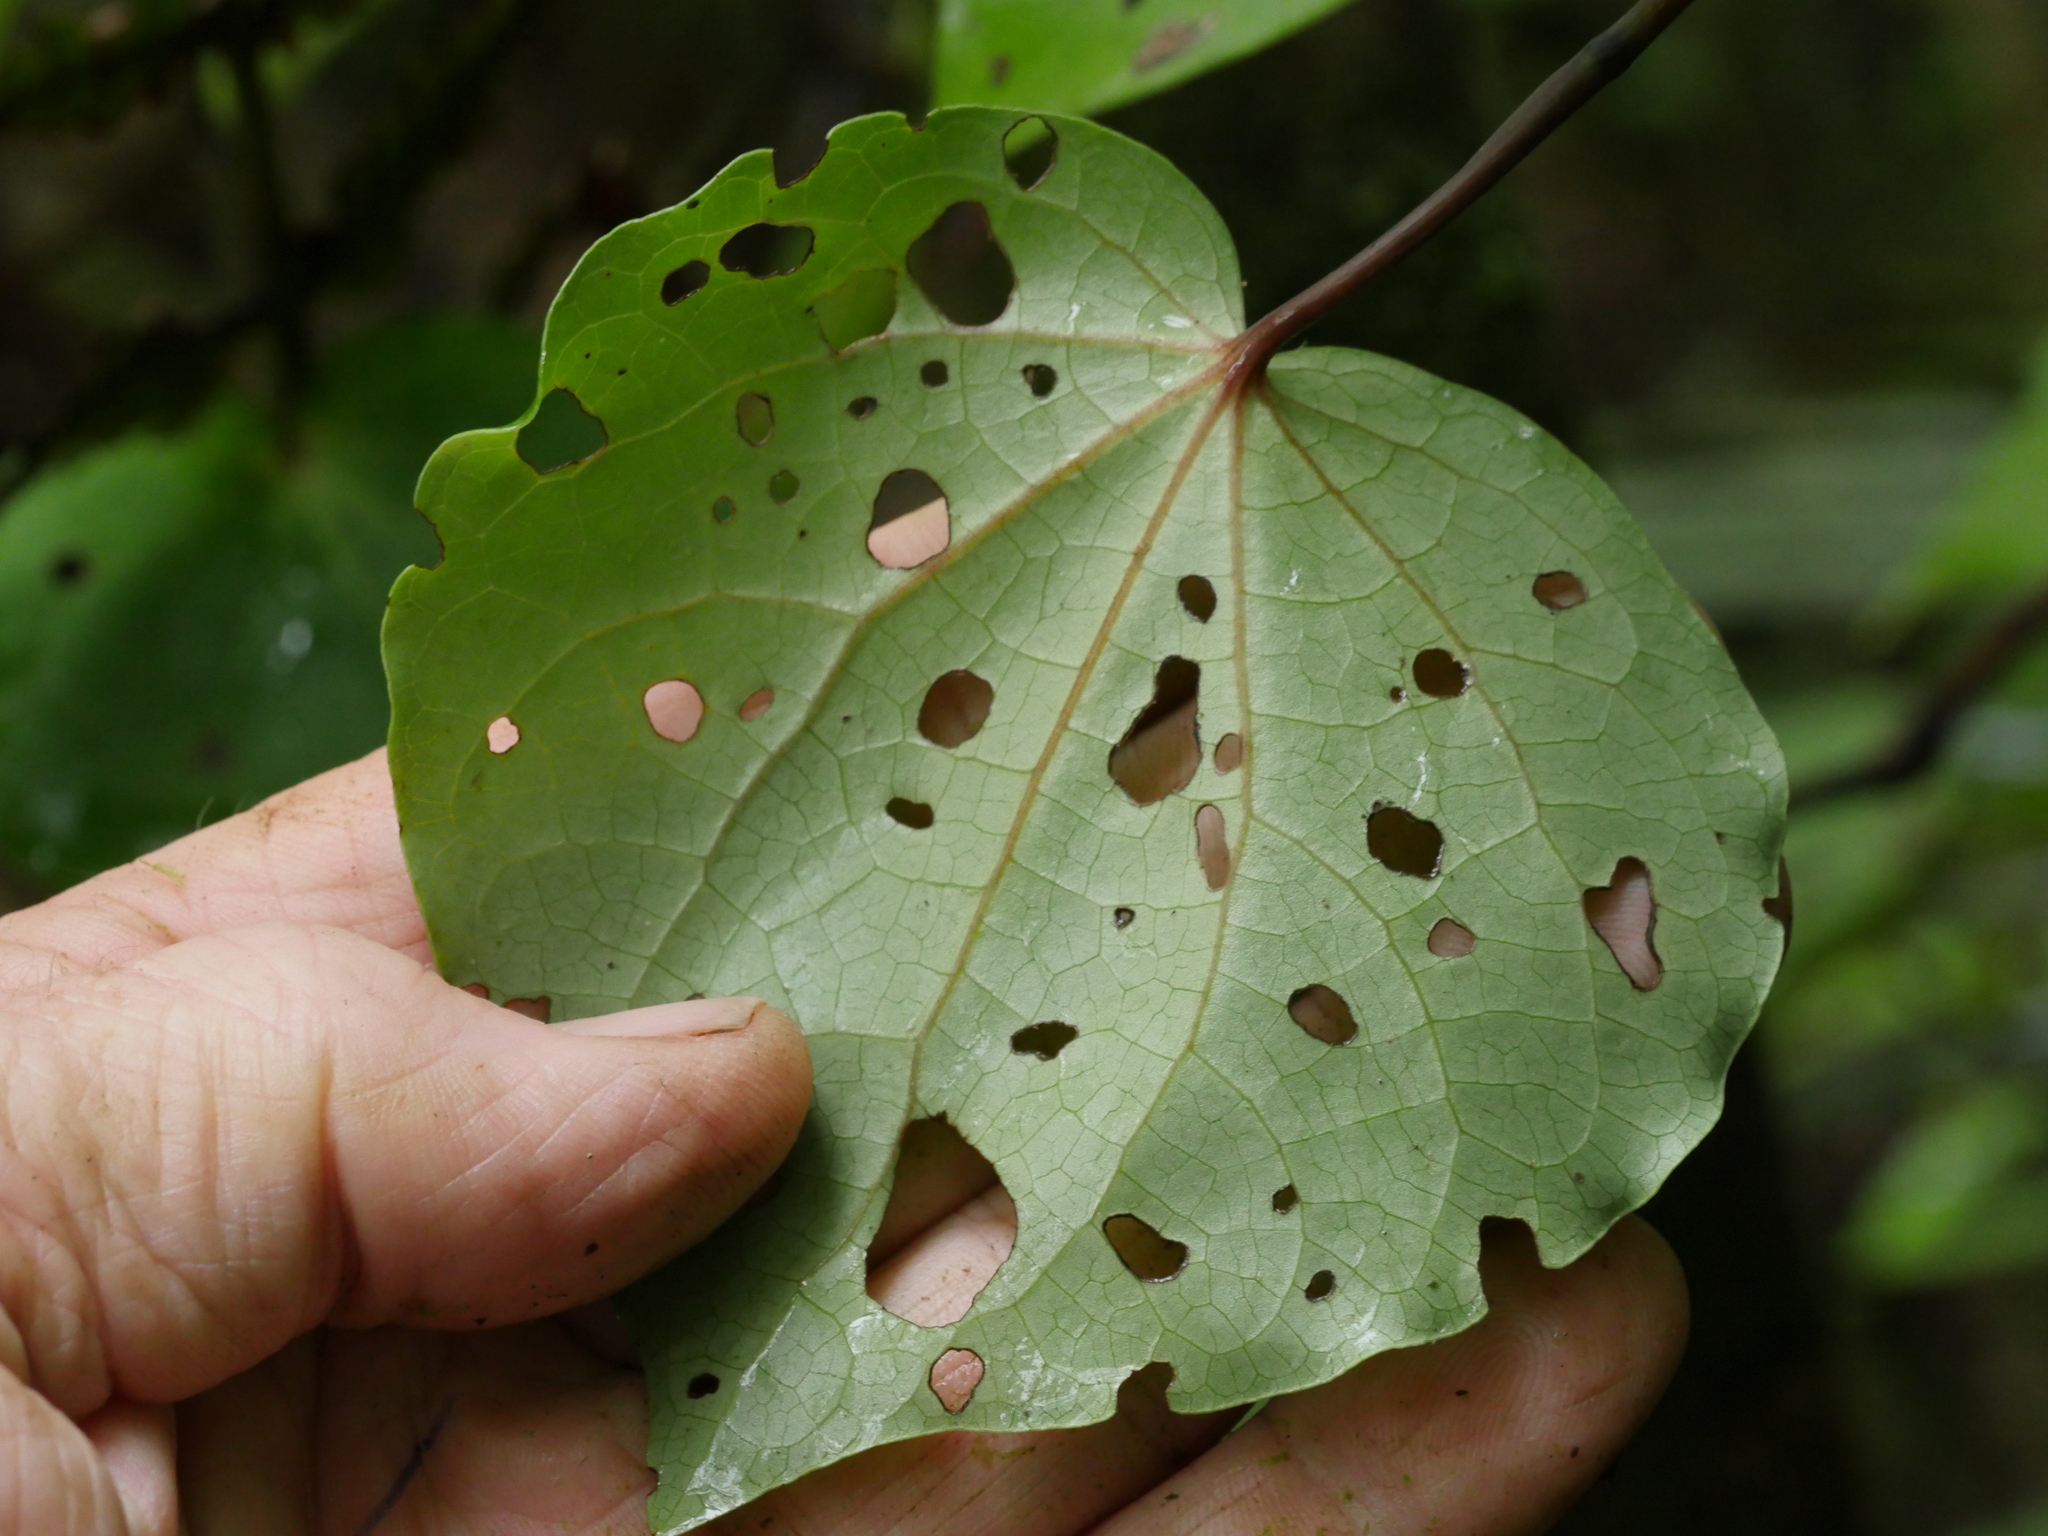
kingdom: Plantae
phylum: Tracheophyta
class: Magnoliopsida
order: Piperales
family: Piperaceae
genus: Macropiper
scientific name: Macropiper excelsum
